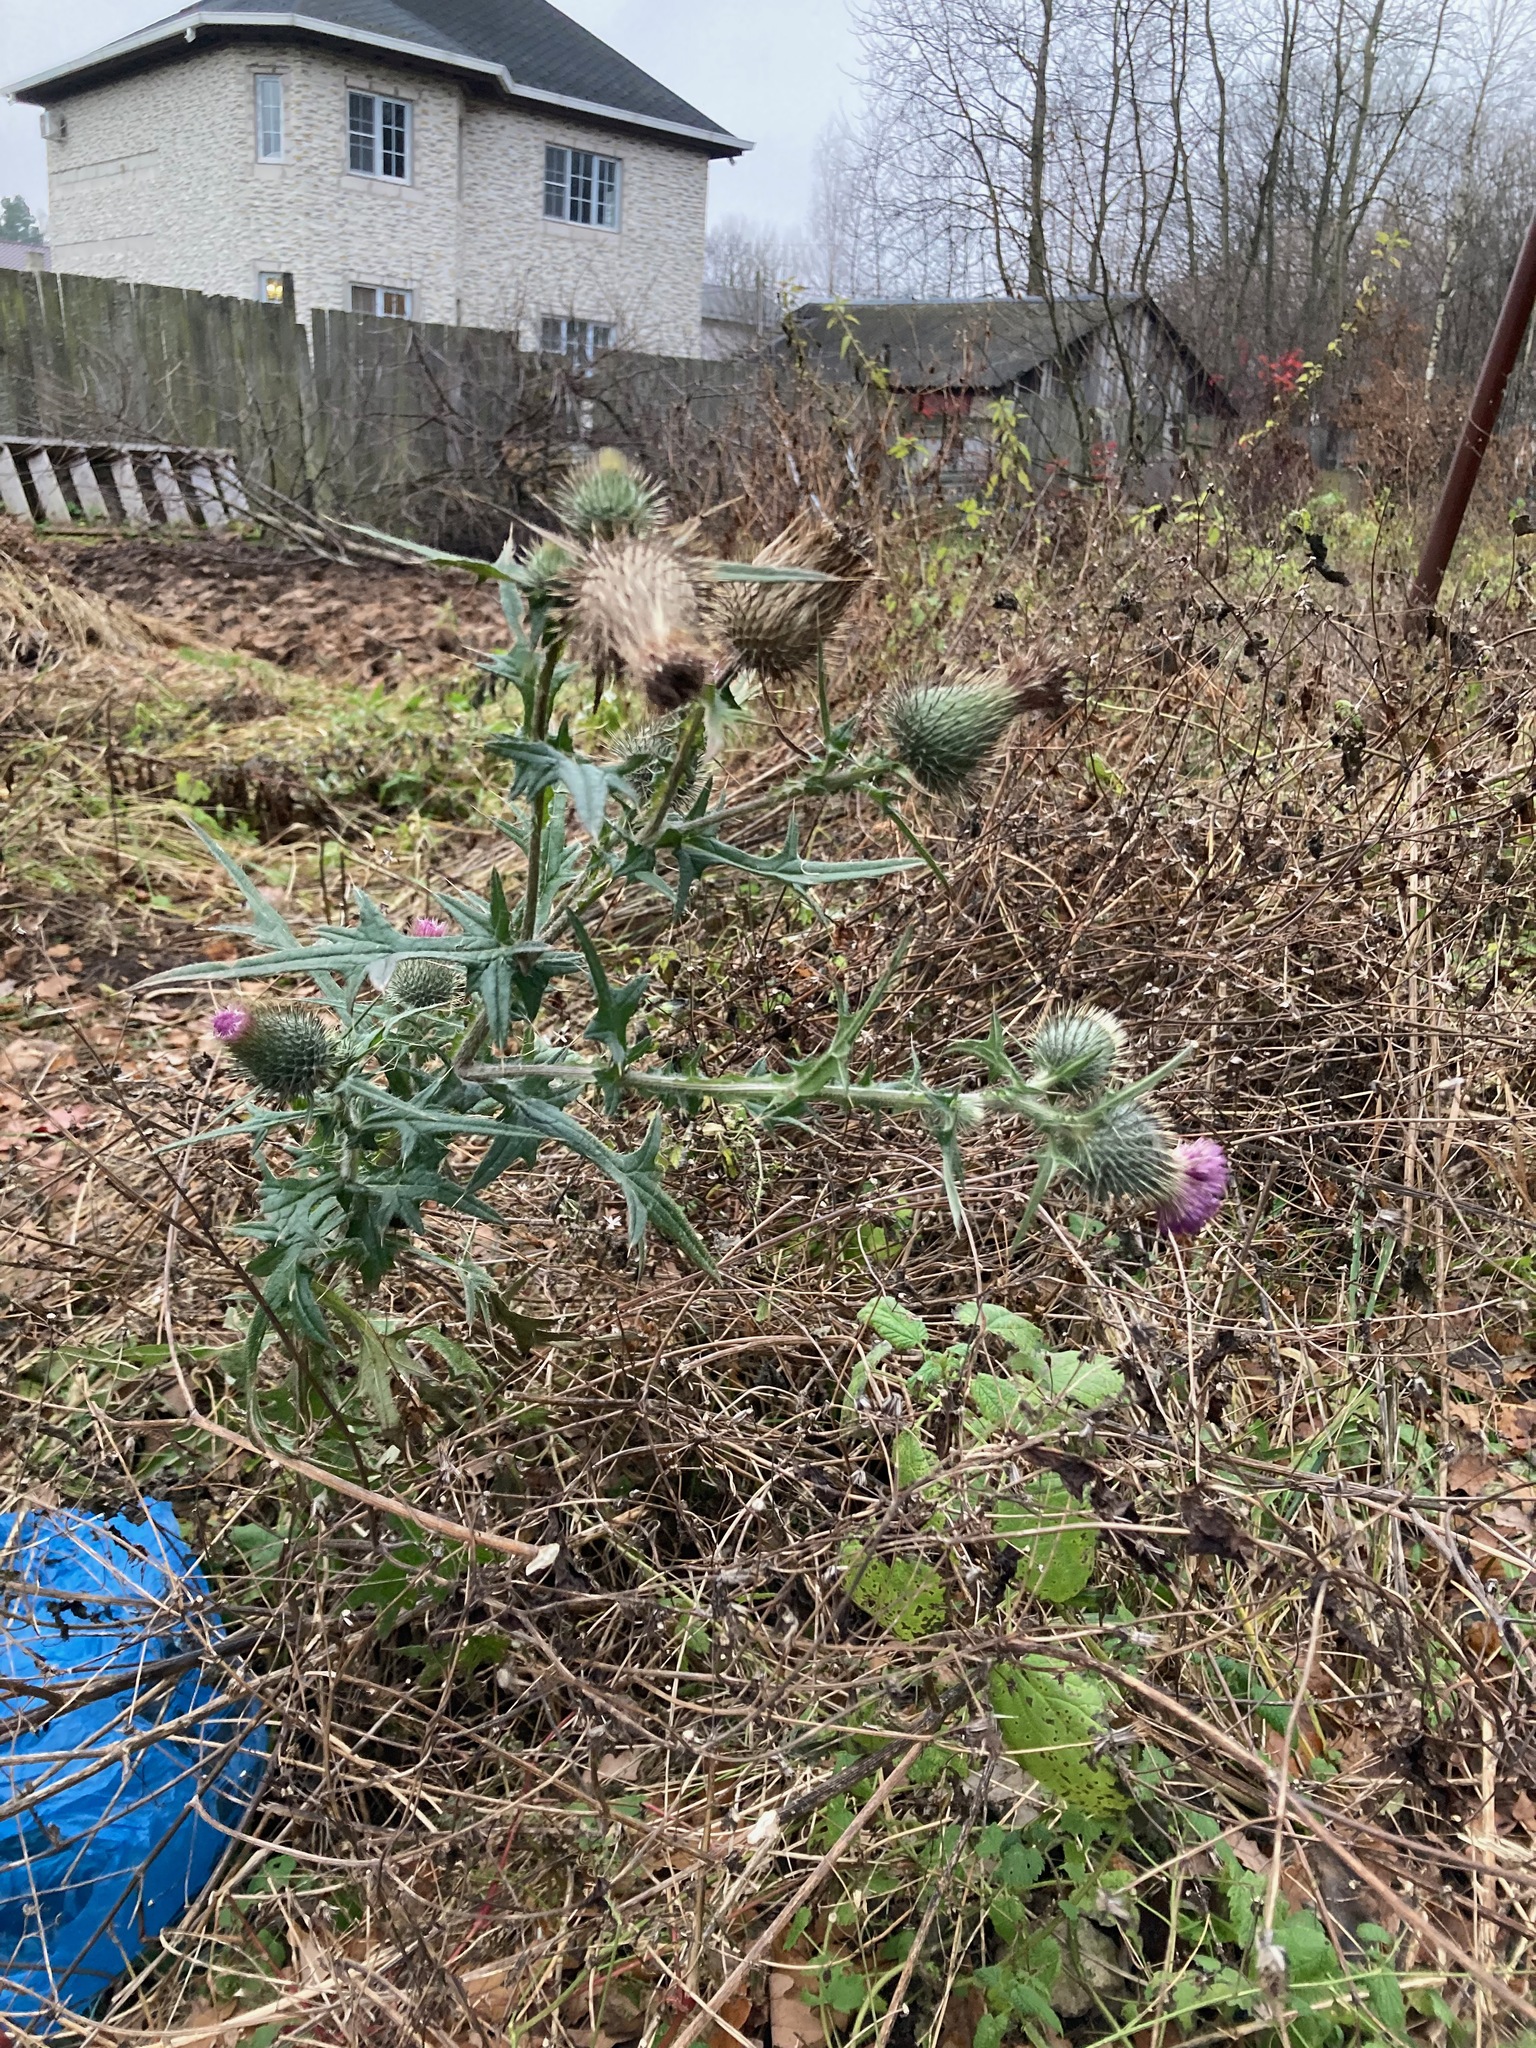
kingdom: Plantae
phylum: Tracheophyta
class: Magnoliopsida
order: Asterales
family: Asteraceae
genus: Cirsium
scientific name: Cirsium vulgare
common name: Bull thistle
